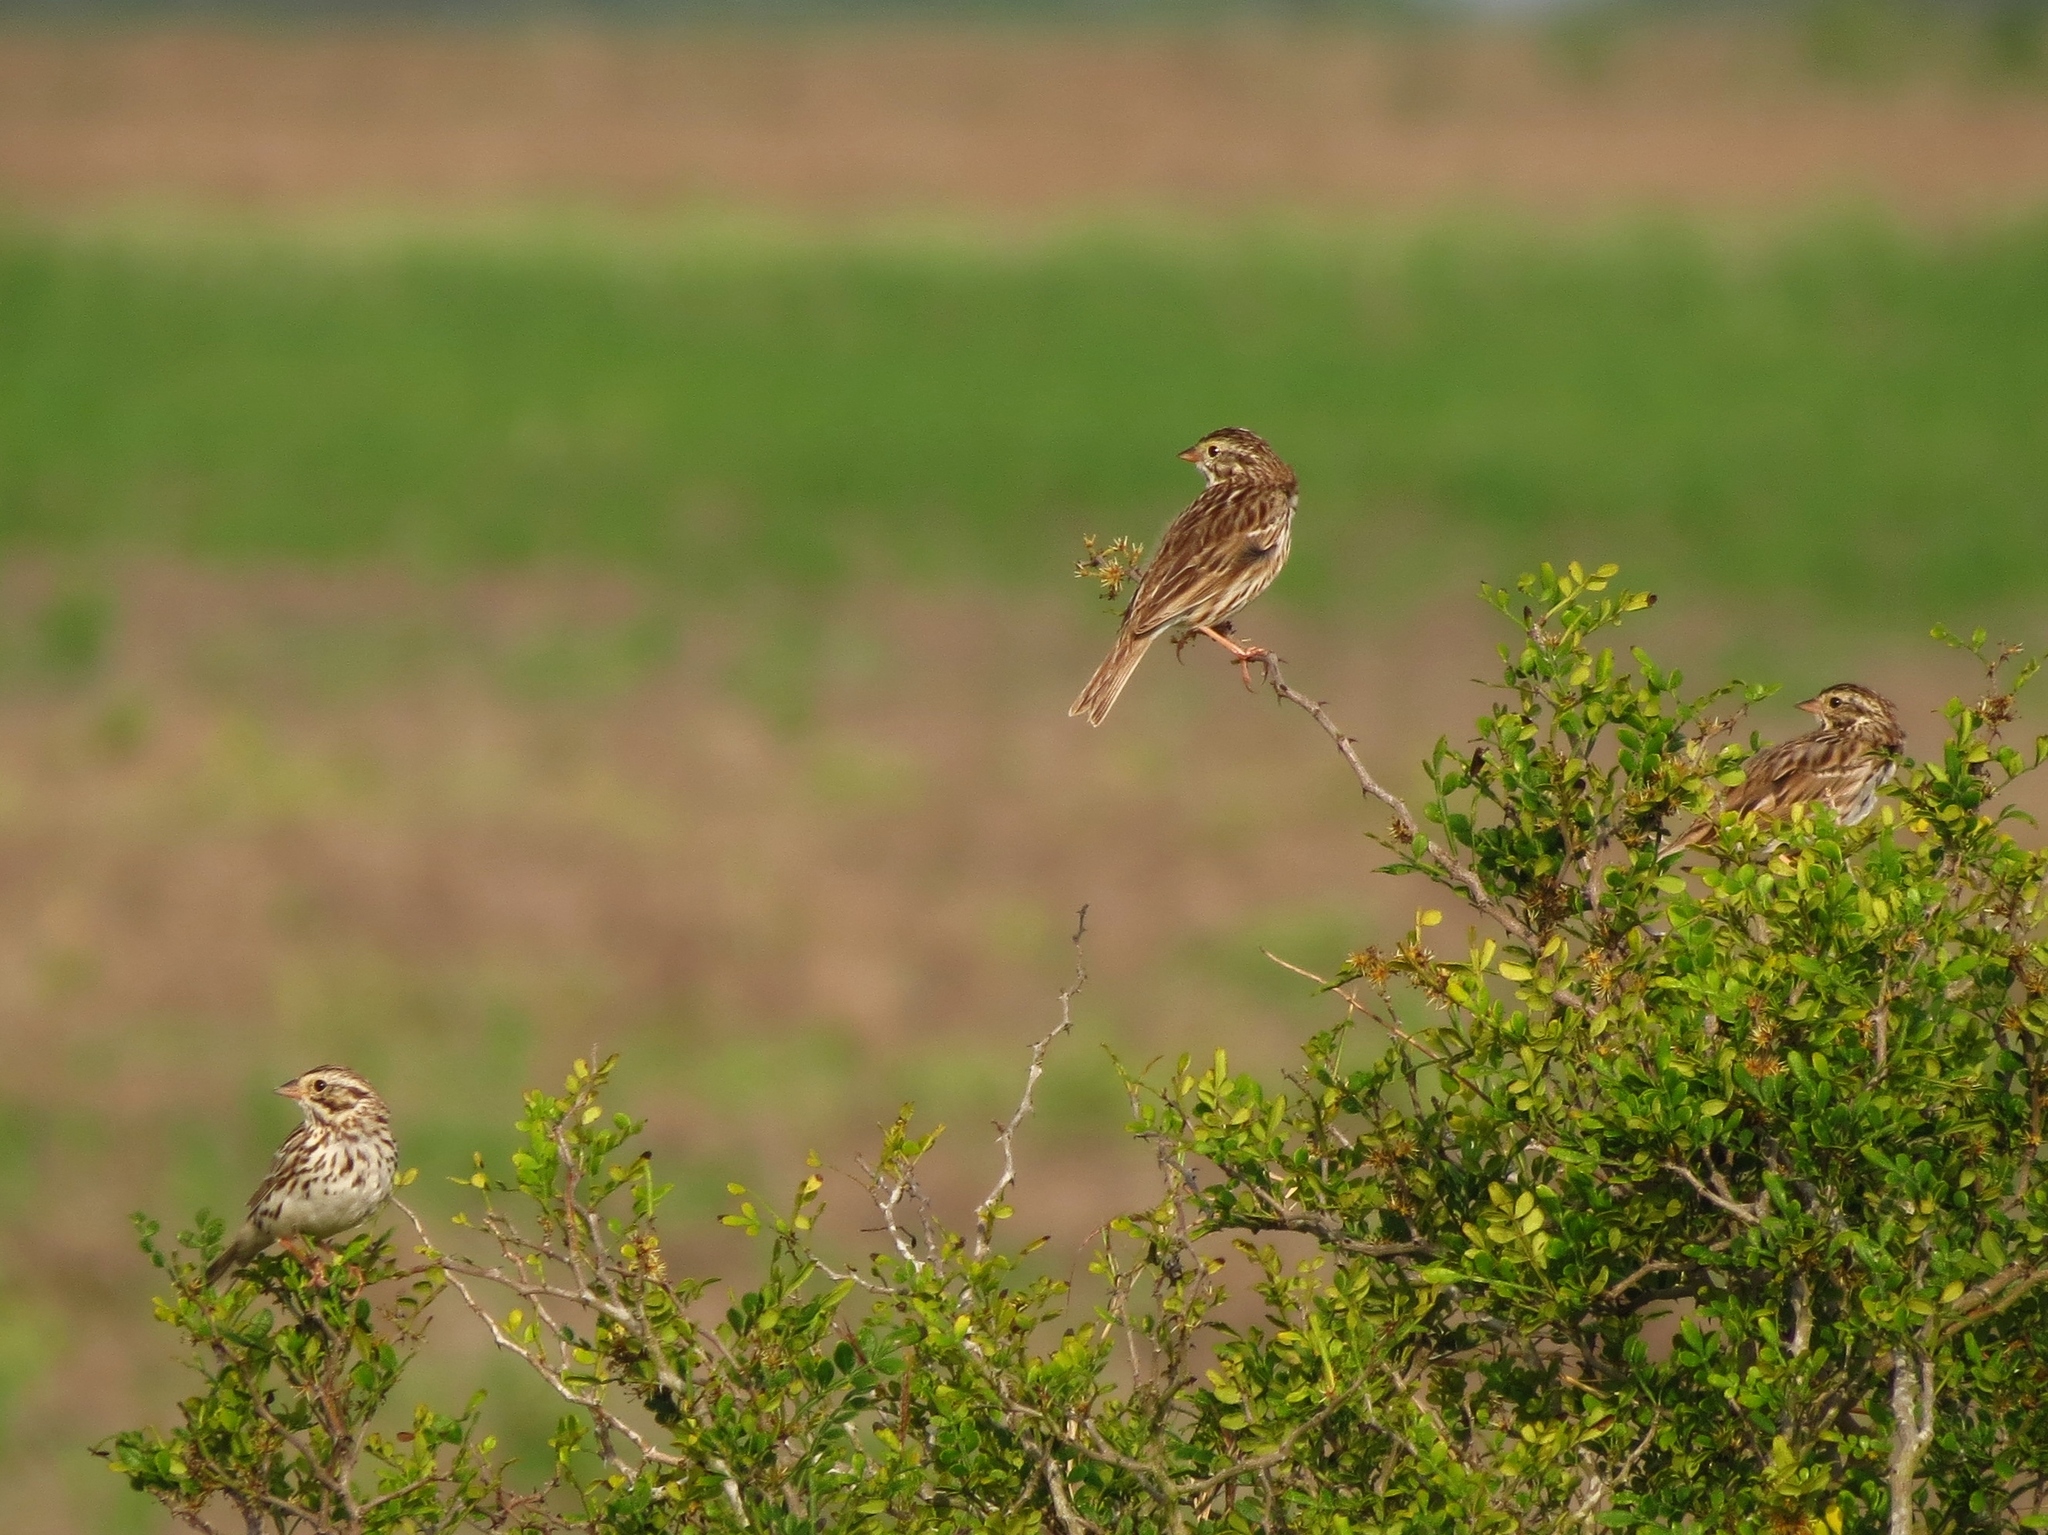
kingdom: Animalia
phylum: Chordata
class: Aves
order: Passeriformes
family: Passerellidae
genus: Passerculus
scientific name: Passerculus sandwichensis
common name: Savannah sparrow
